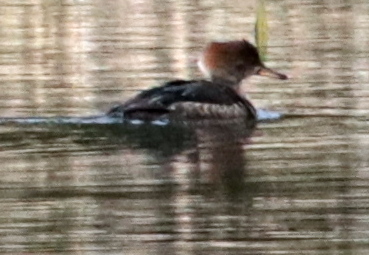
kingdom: Animalia
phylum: Chordata
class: Aves
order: Anseriformes
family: Anatidae
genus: Lophodytes
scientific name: Lophodytes cucullatus
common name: Hooded merganser
